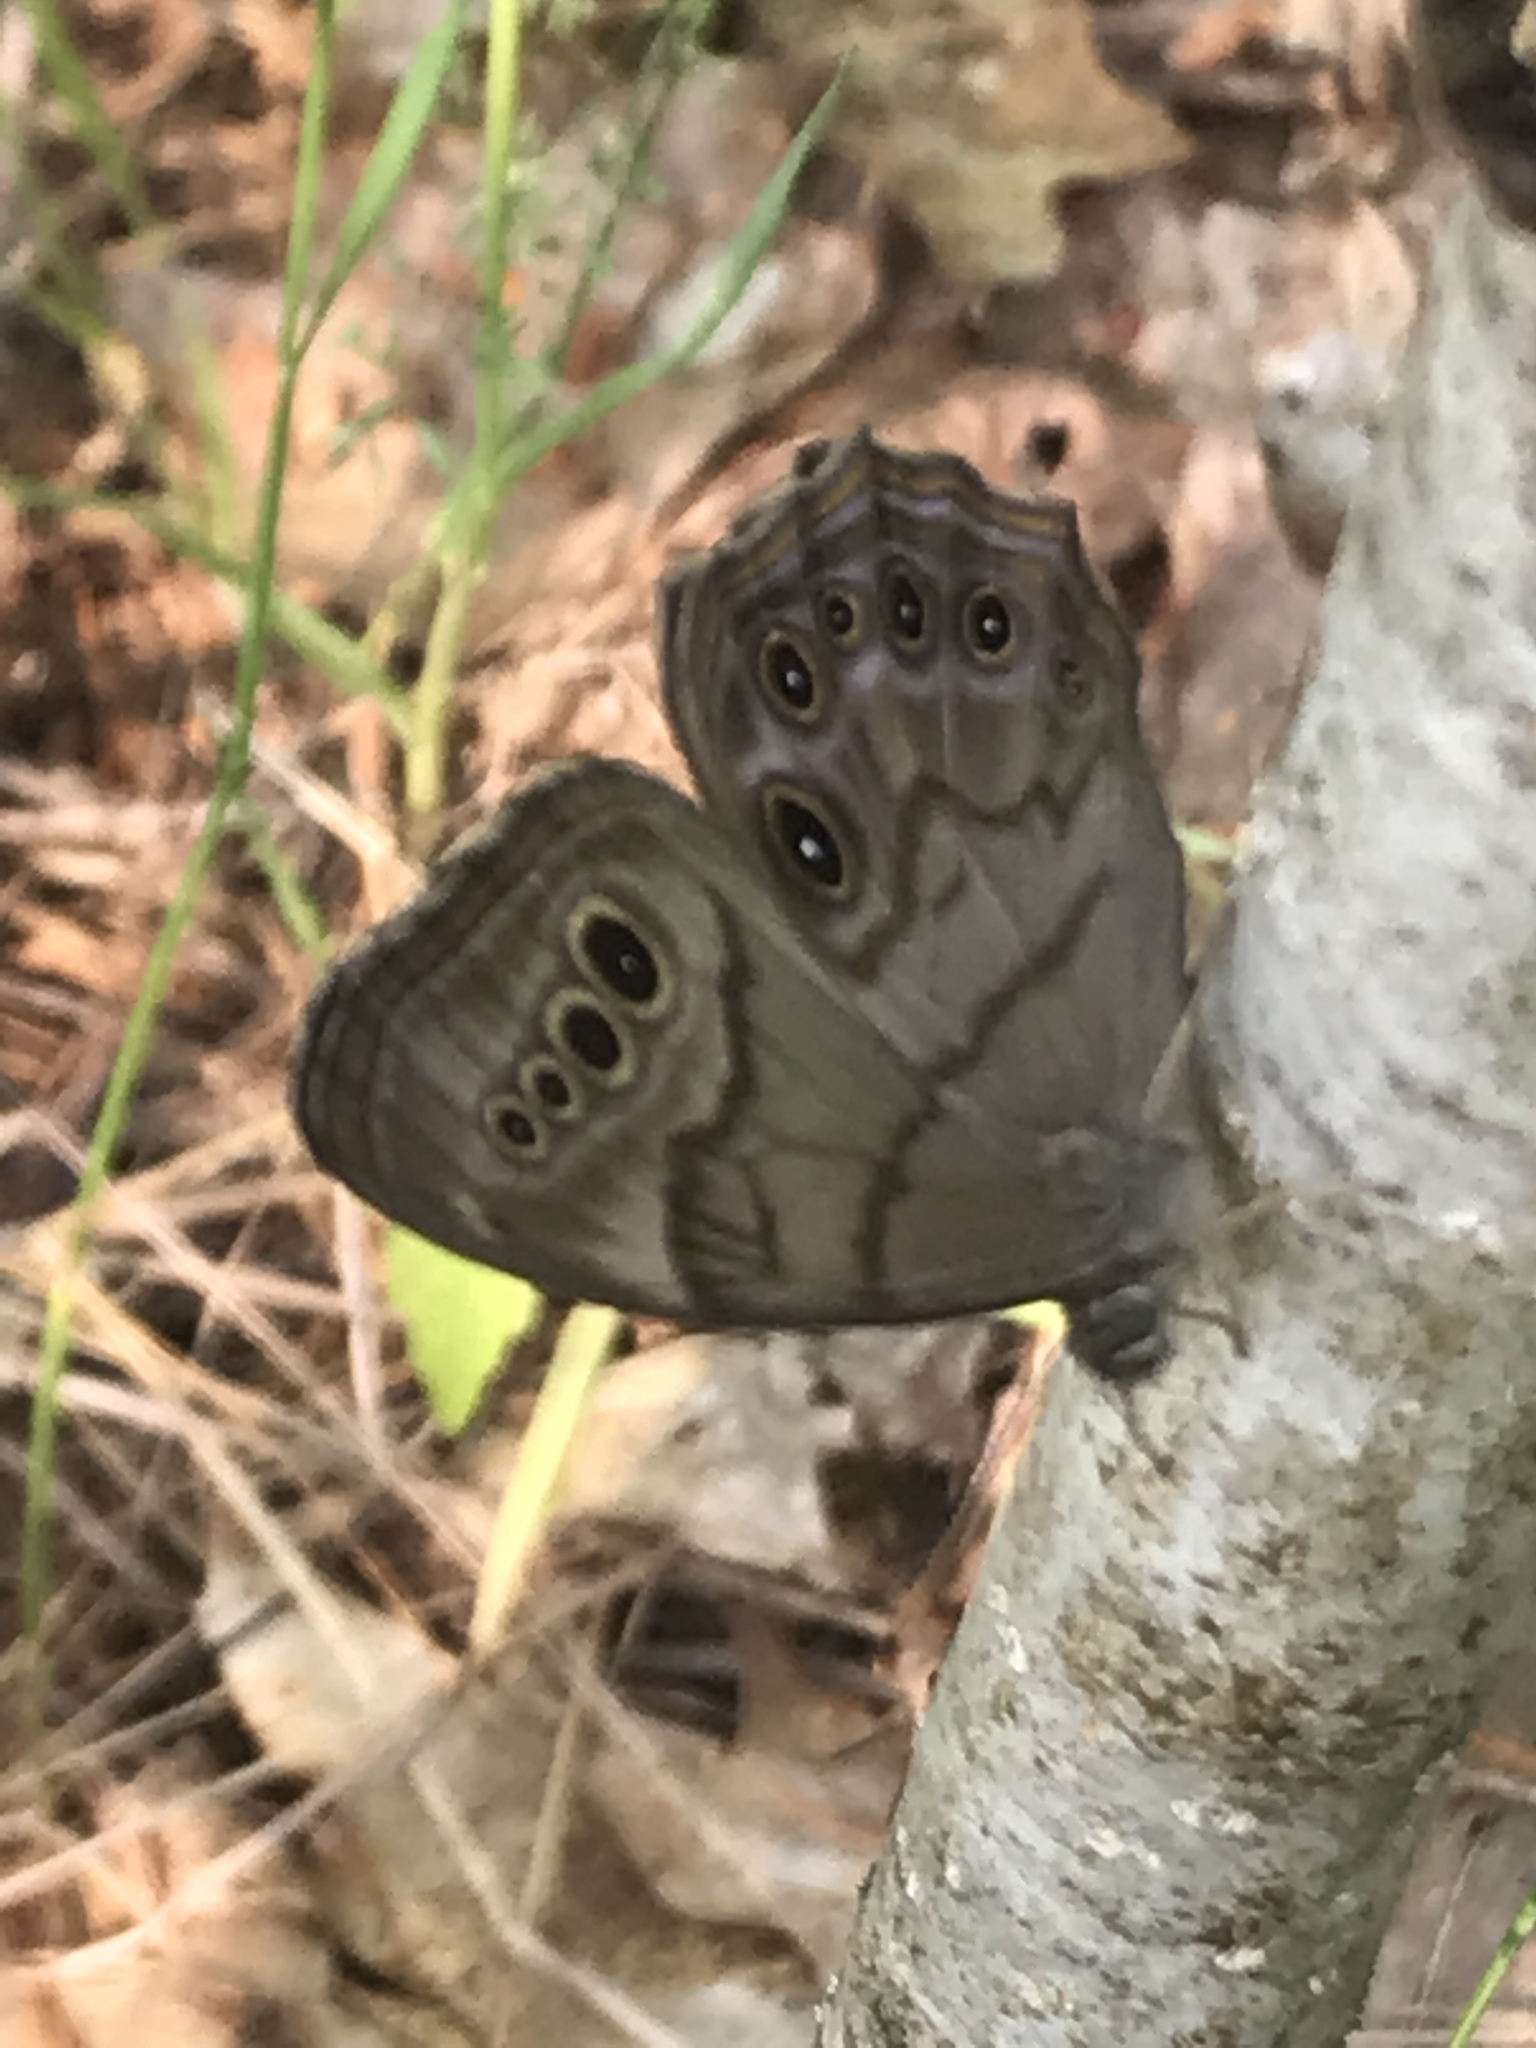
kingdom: Animalia
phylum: Arthropoda
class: Insecta
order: Lepidoptera
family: Nymphalidae
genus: Lethe
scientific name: Lethe anthedon
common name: Northern pearly-eye
